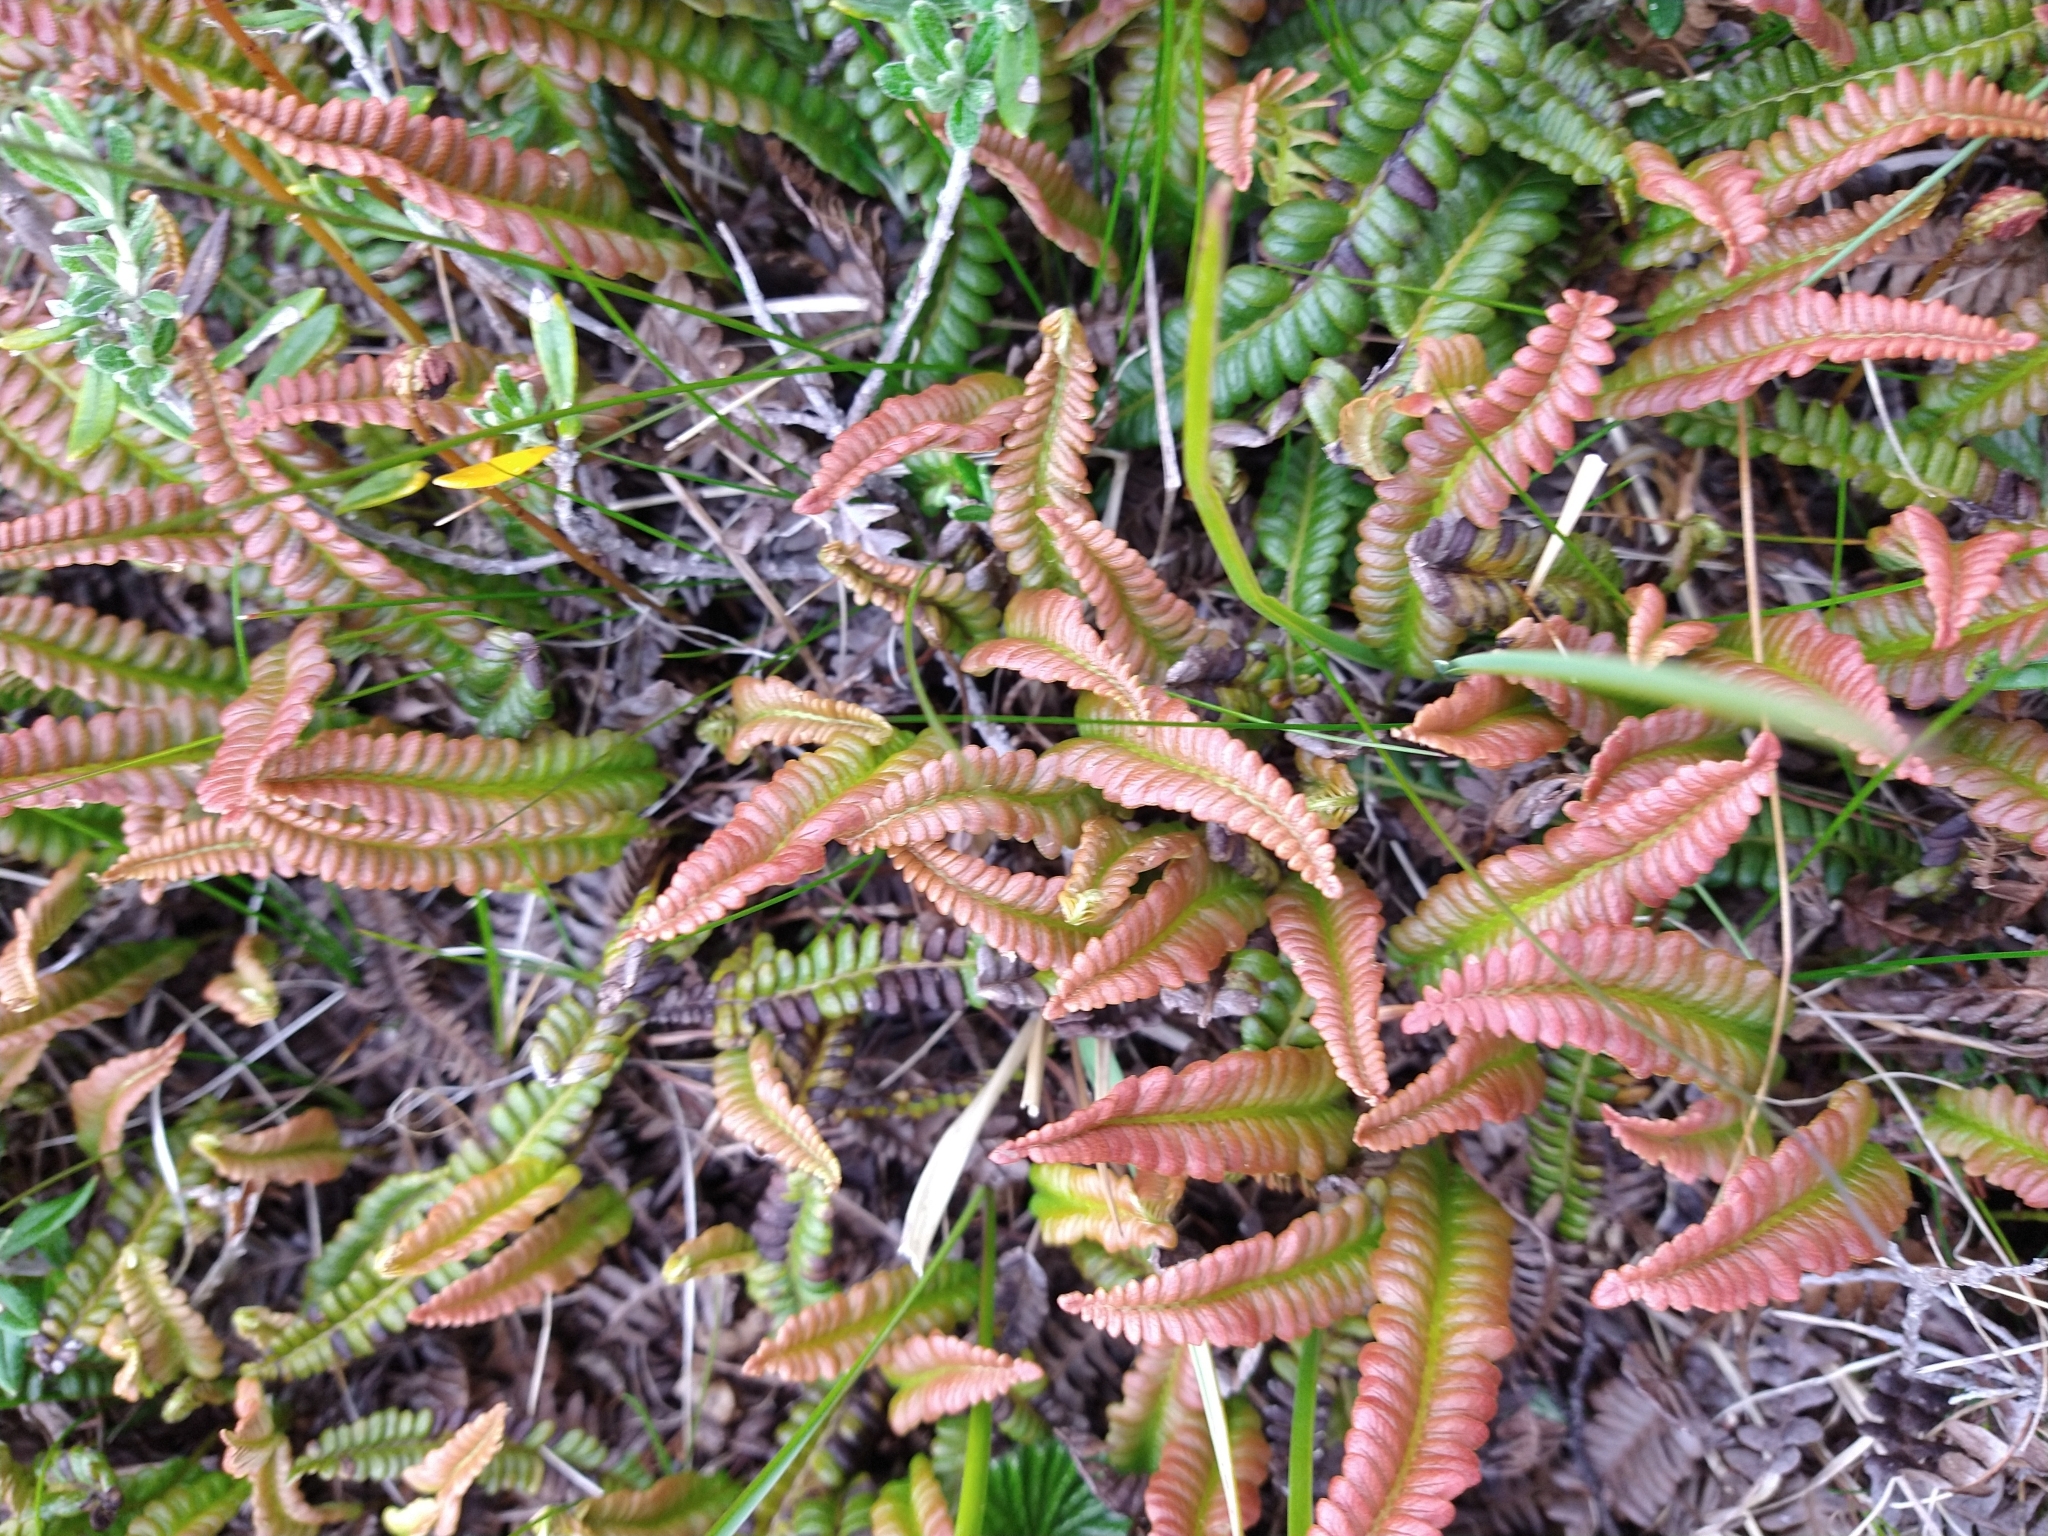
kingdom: Plantae
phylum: Tracheophyta
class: Polypodiopsida
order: Polypodiales
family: Blechnaceae
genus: Austroblechnum
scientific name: Austroblechnum penna-marina
